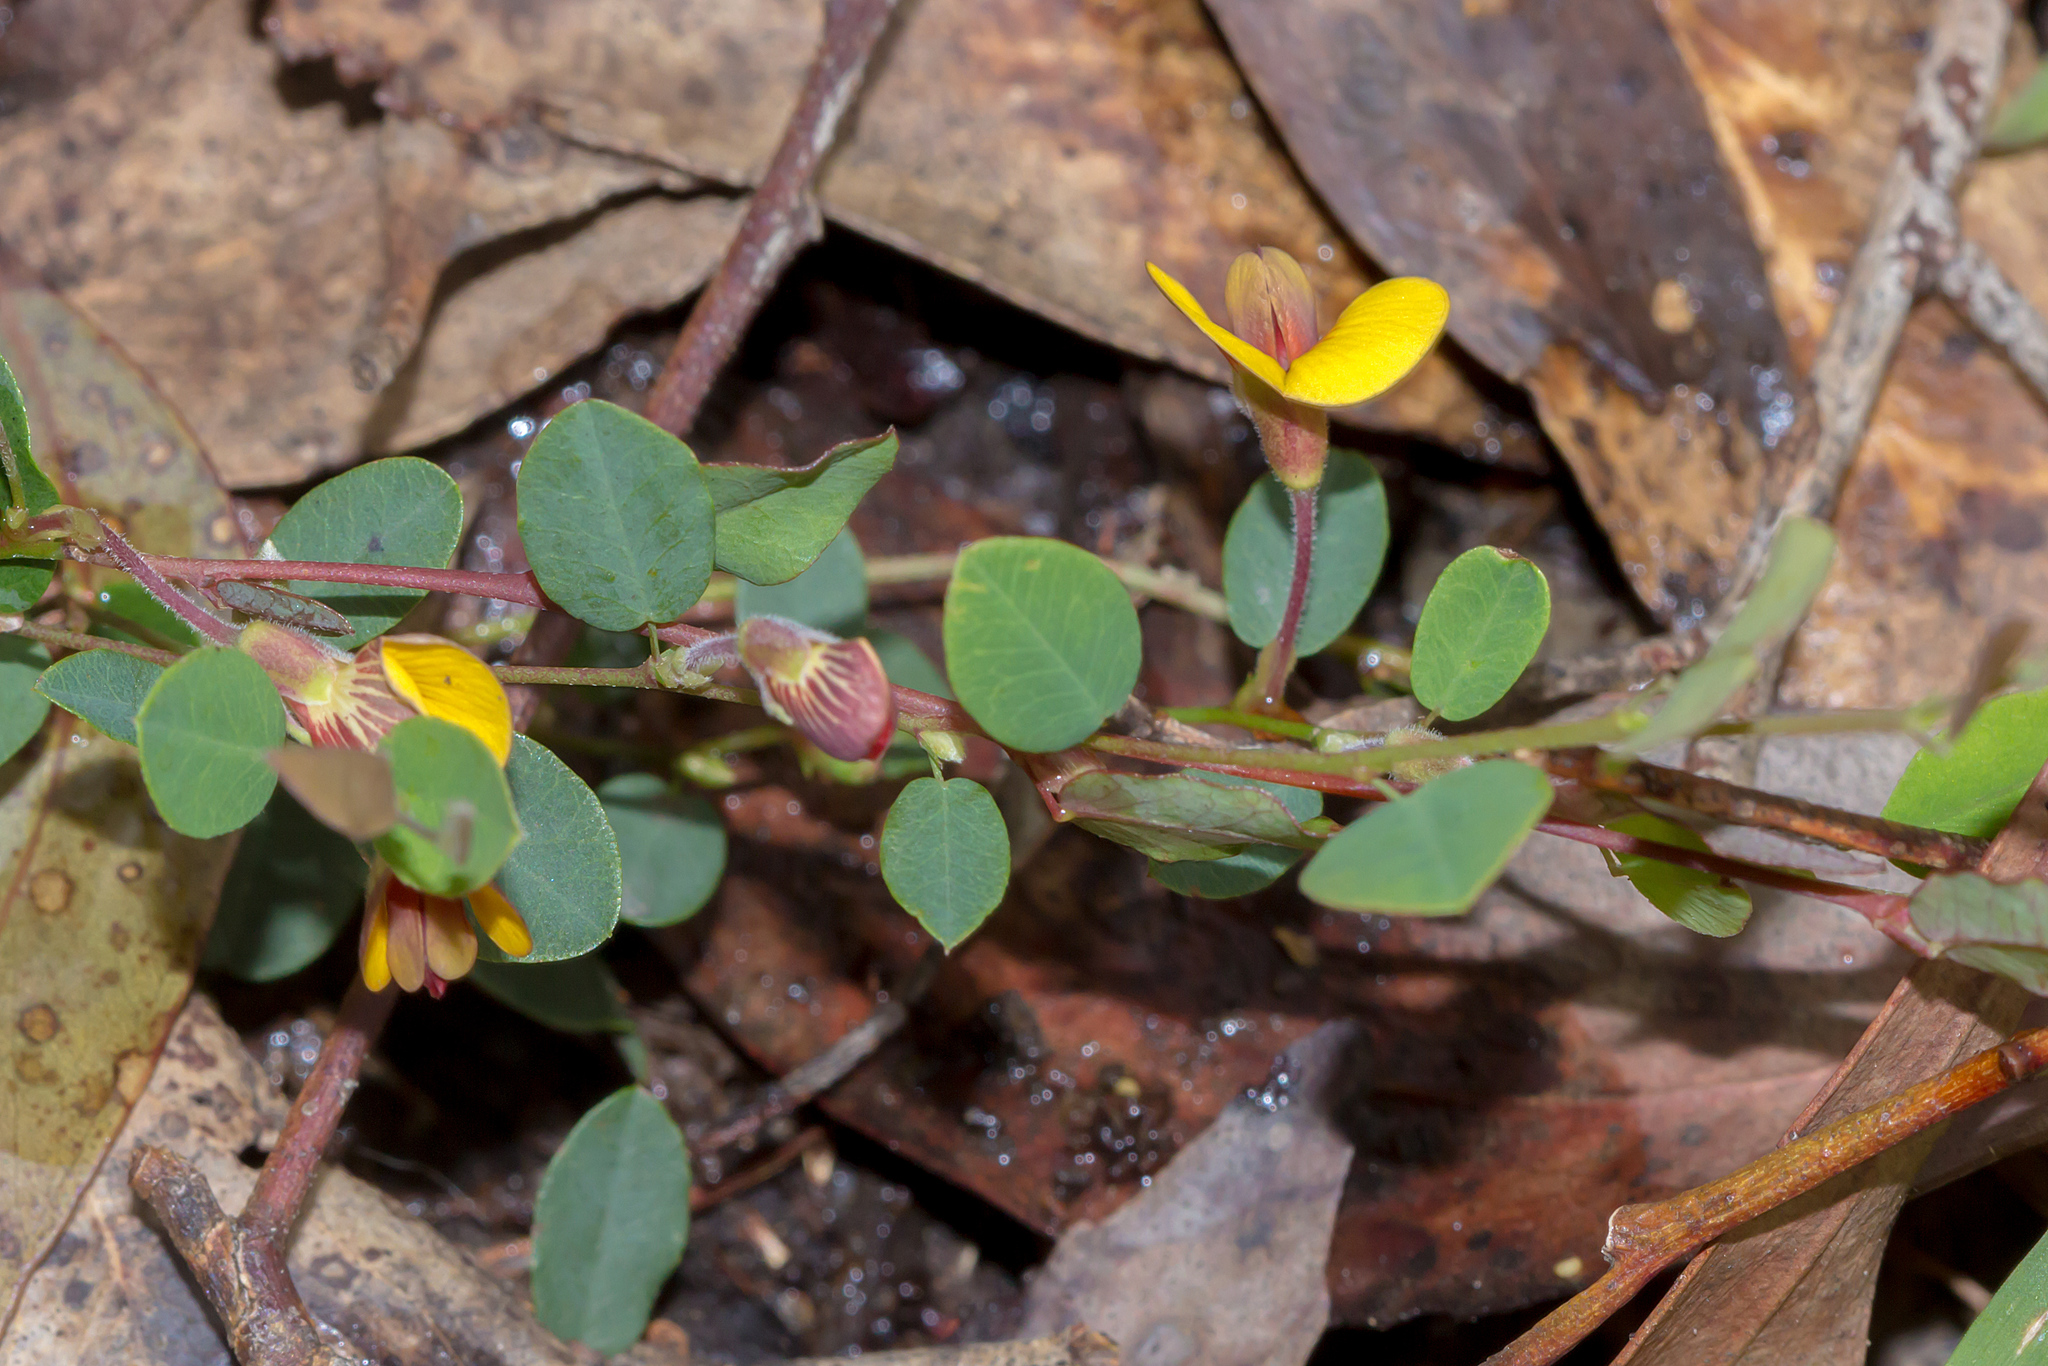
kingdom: Plantae
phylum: Tracheophyta
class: Magnoliopsida
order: Fabales
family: Fabaceae
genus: Bossiaea
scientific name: Bossiaea prostrata
